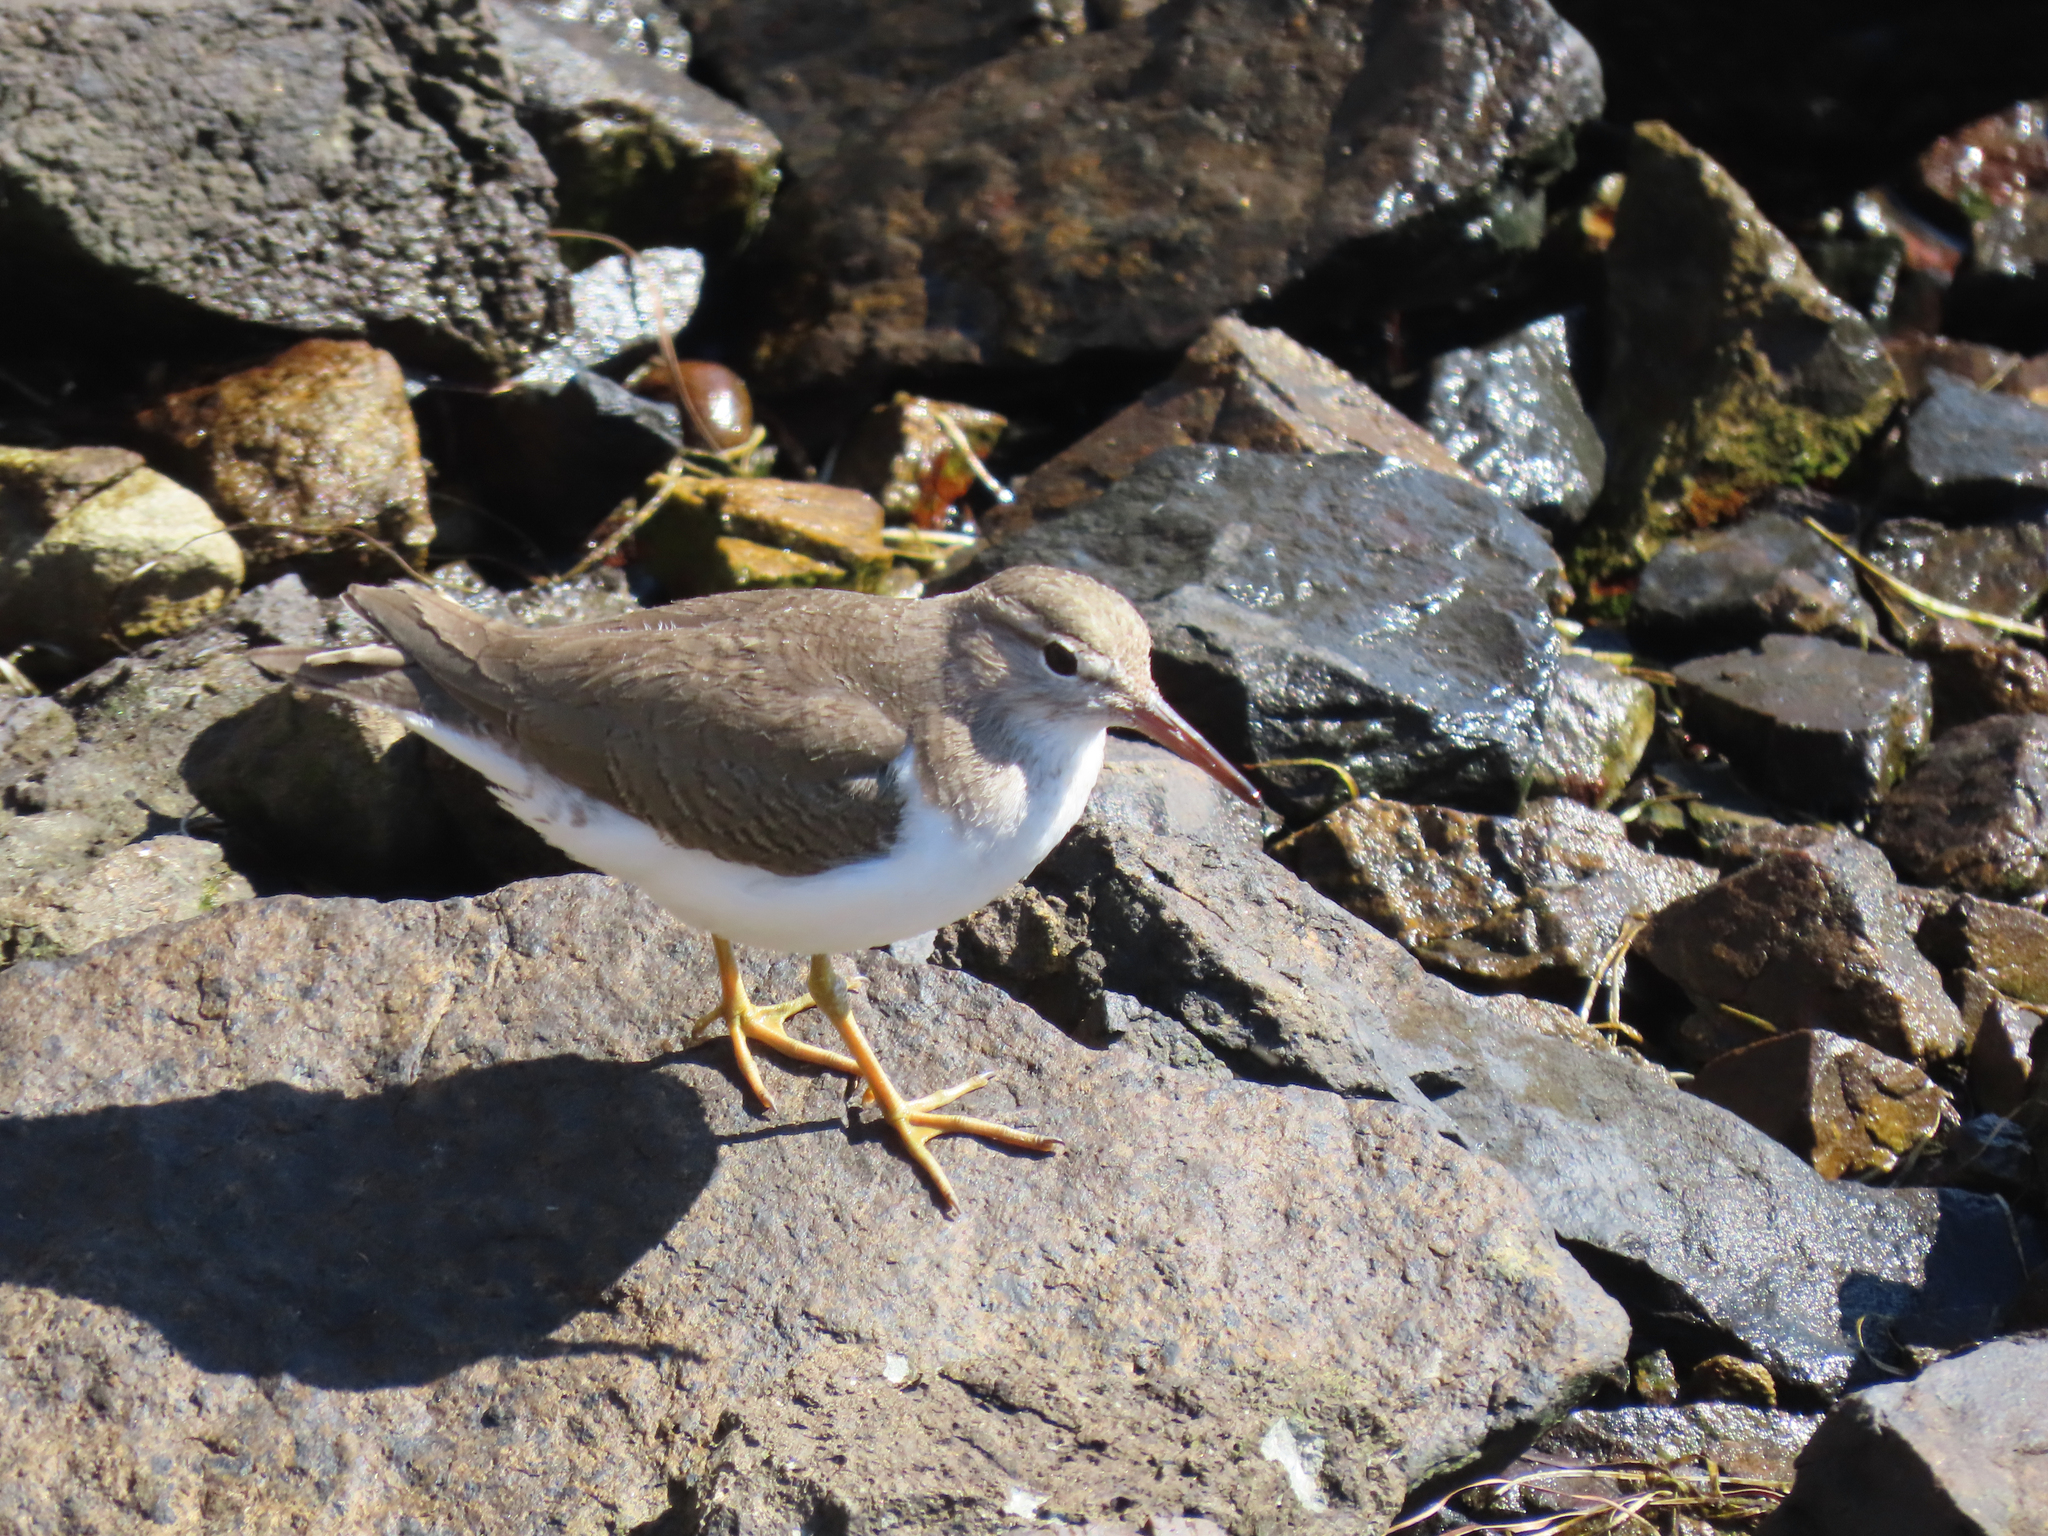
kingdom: Animalia
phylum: Chordata
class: Aves
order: Charadriiformes
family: Scolopacidae
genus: Actitis
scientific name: Actitis macularius
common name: Spotted sandpiper
